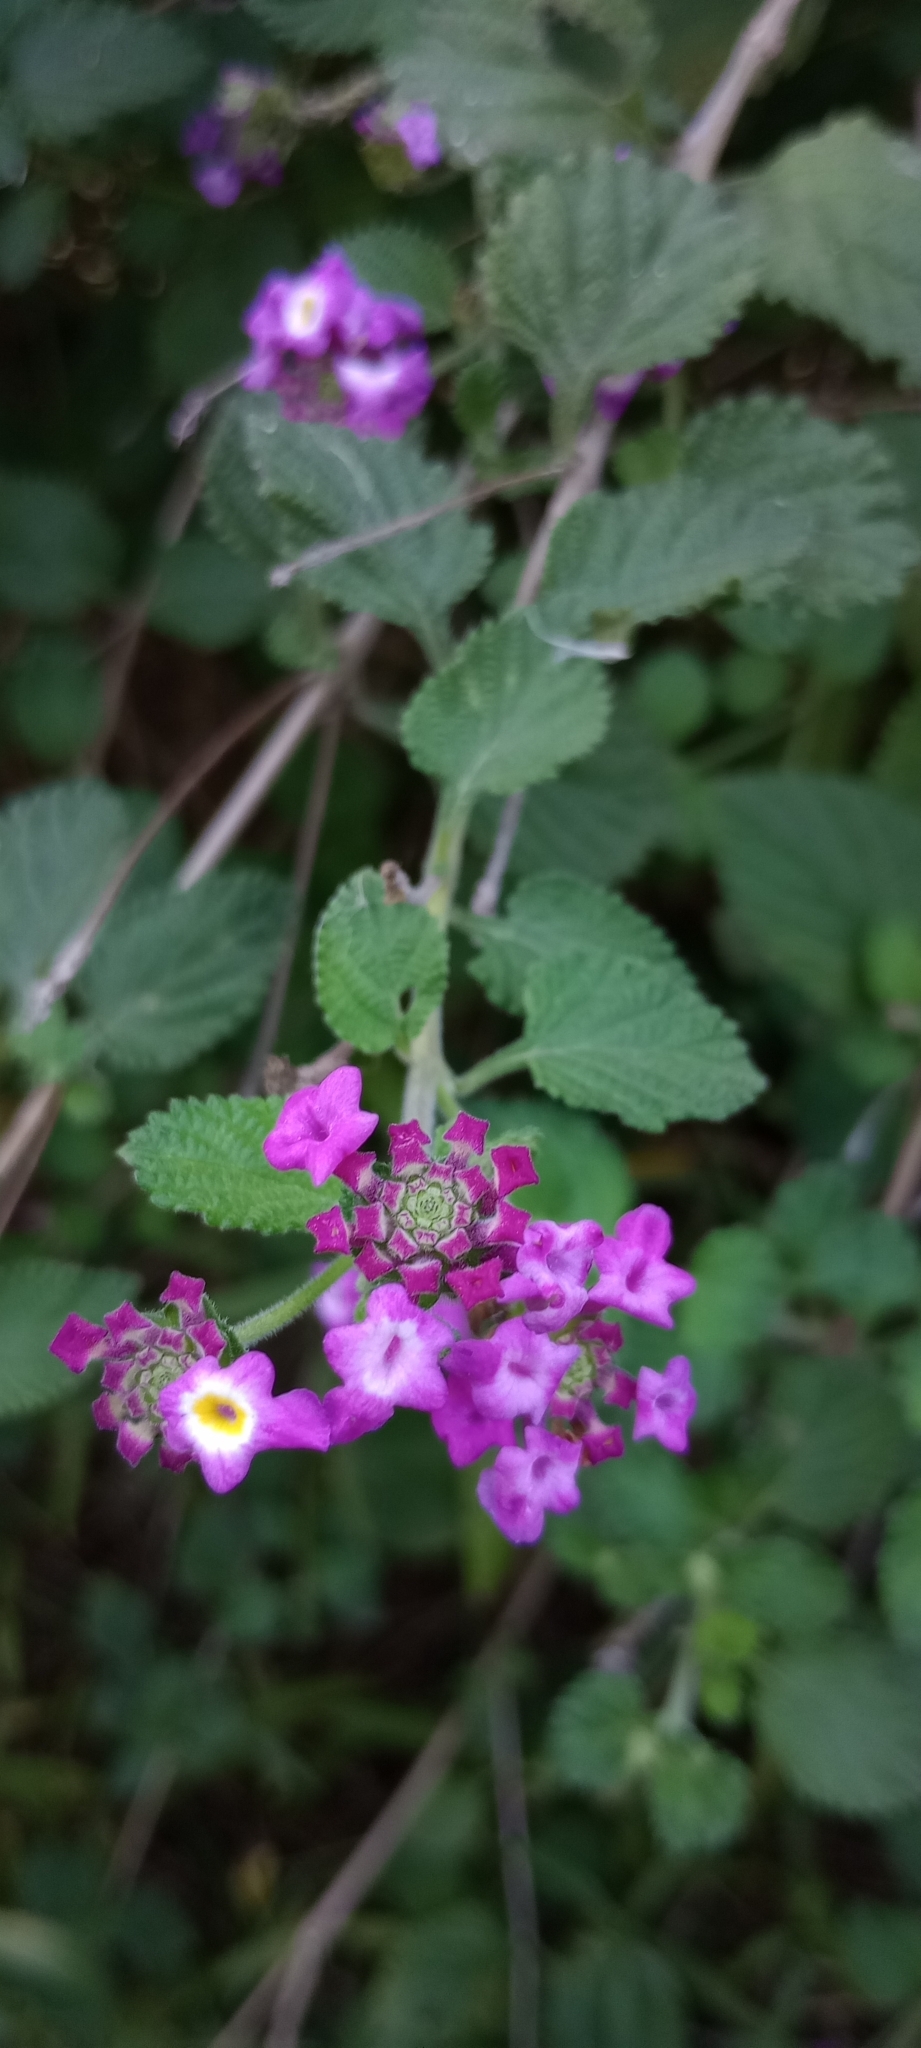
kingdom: Plantae
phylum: Tracheophyta
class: Magnoliopsida
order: Lamiales
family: Verbenaceae
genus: Lantana
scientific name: Lantana megapotamica
